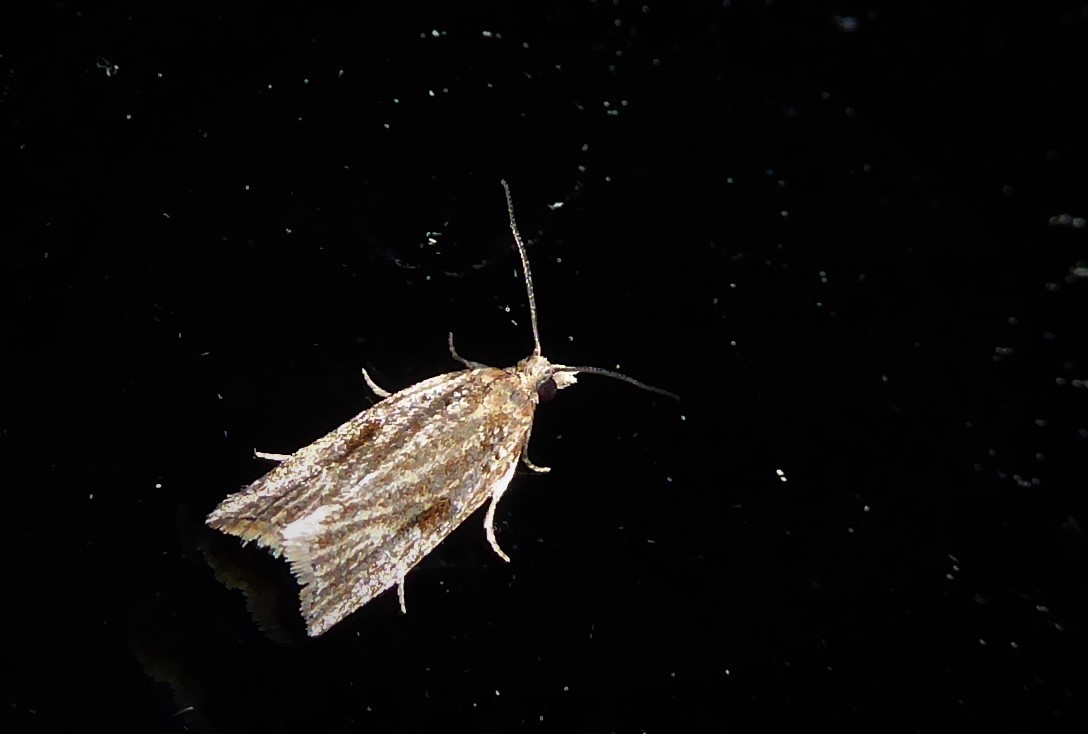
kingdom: Animalia
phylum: Arthropoda
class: Insecta
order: Lepidoptera
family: Tortricidae
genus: Capua
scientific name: Capua semiferana
